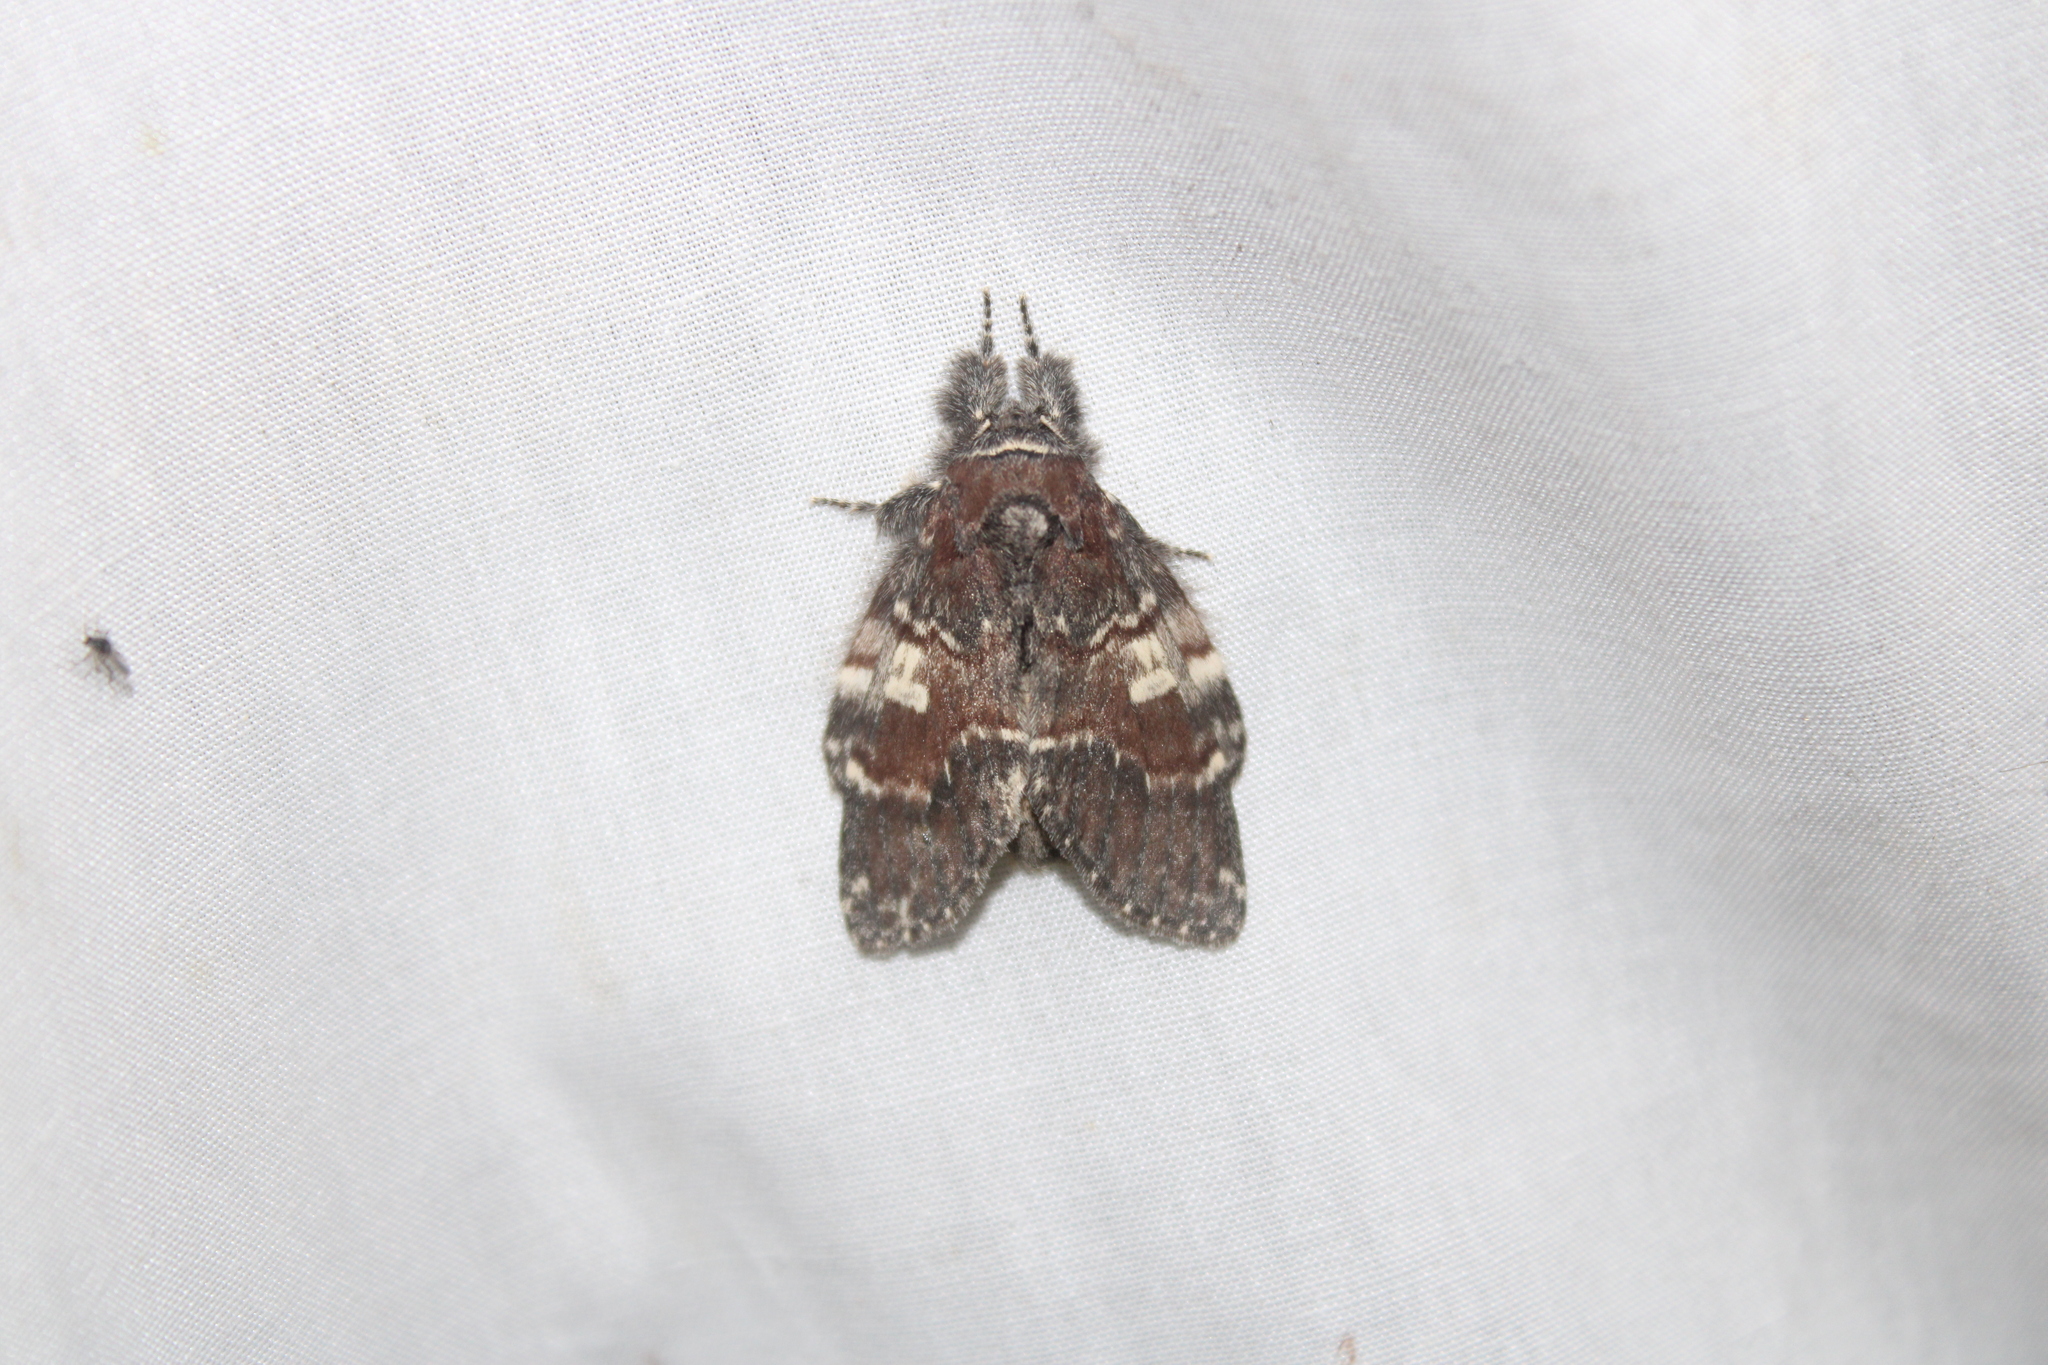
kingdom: Animalia
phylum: Arthropoda
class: Insecta
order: Lepidoptera
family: Notodontidae
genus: Peridea
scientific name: Peridea ferruginea
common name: Chocolate prominent
